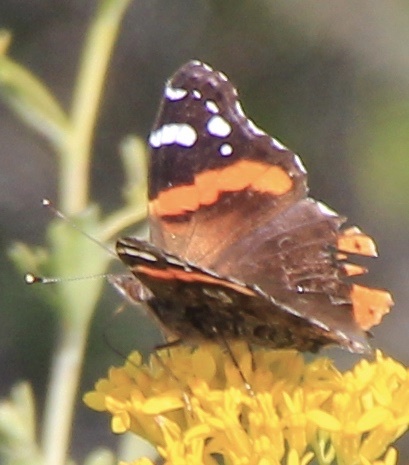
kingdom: Animalia
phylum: Arthropoda
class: Insecta
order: Lepidoptera
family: Nymphalidae
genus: Vanessa
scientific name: Vanessa atalanta
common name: Red admiral
